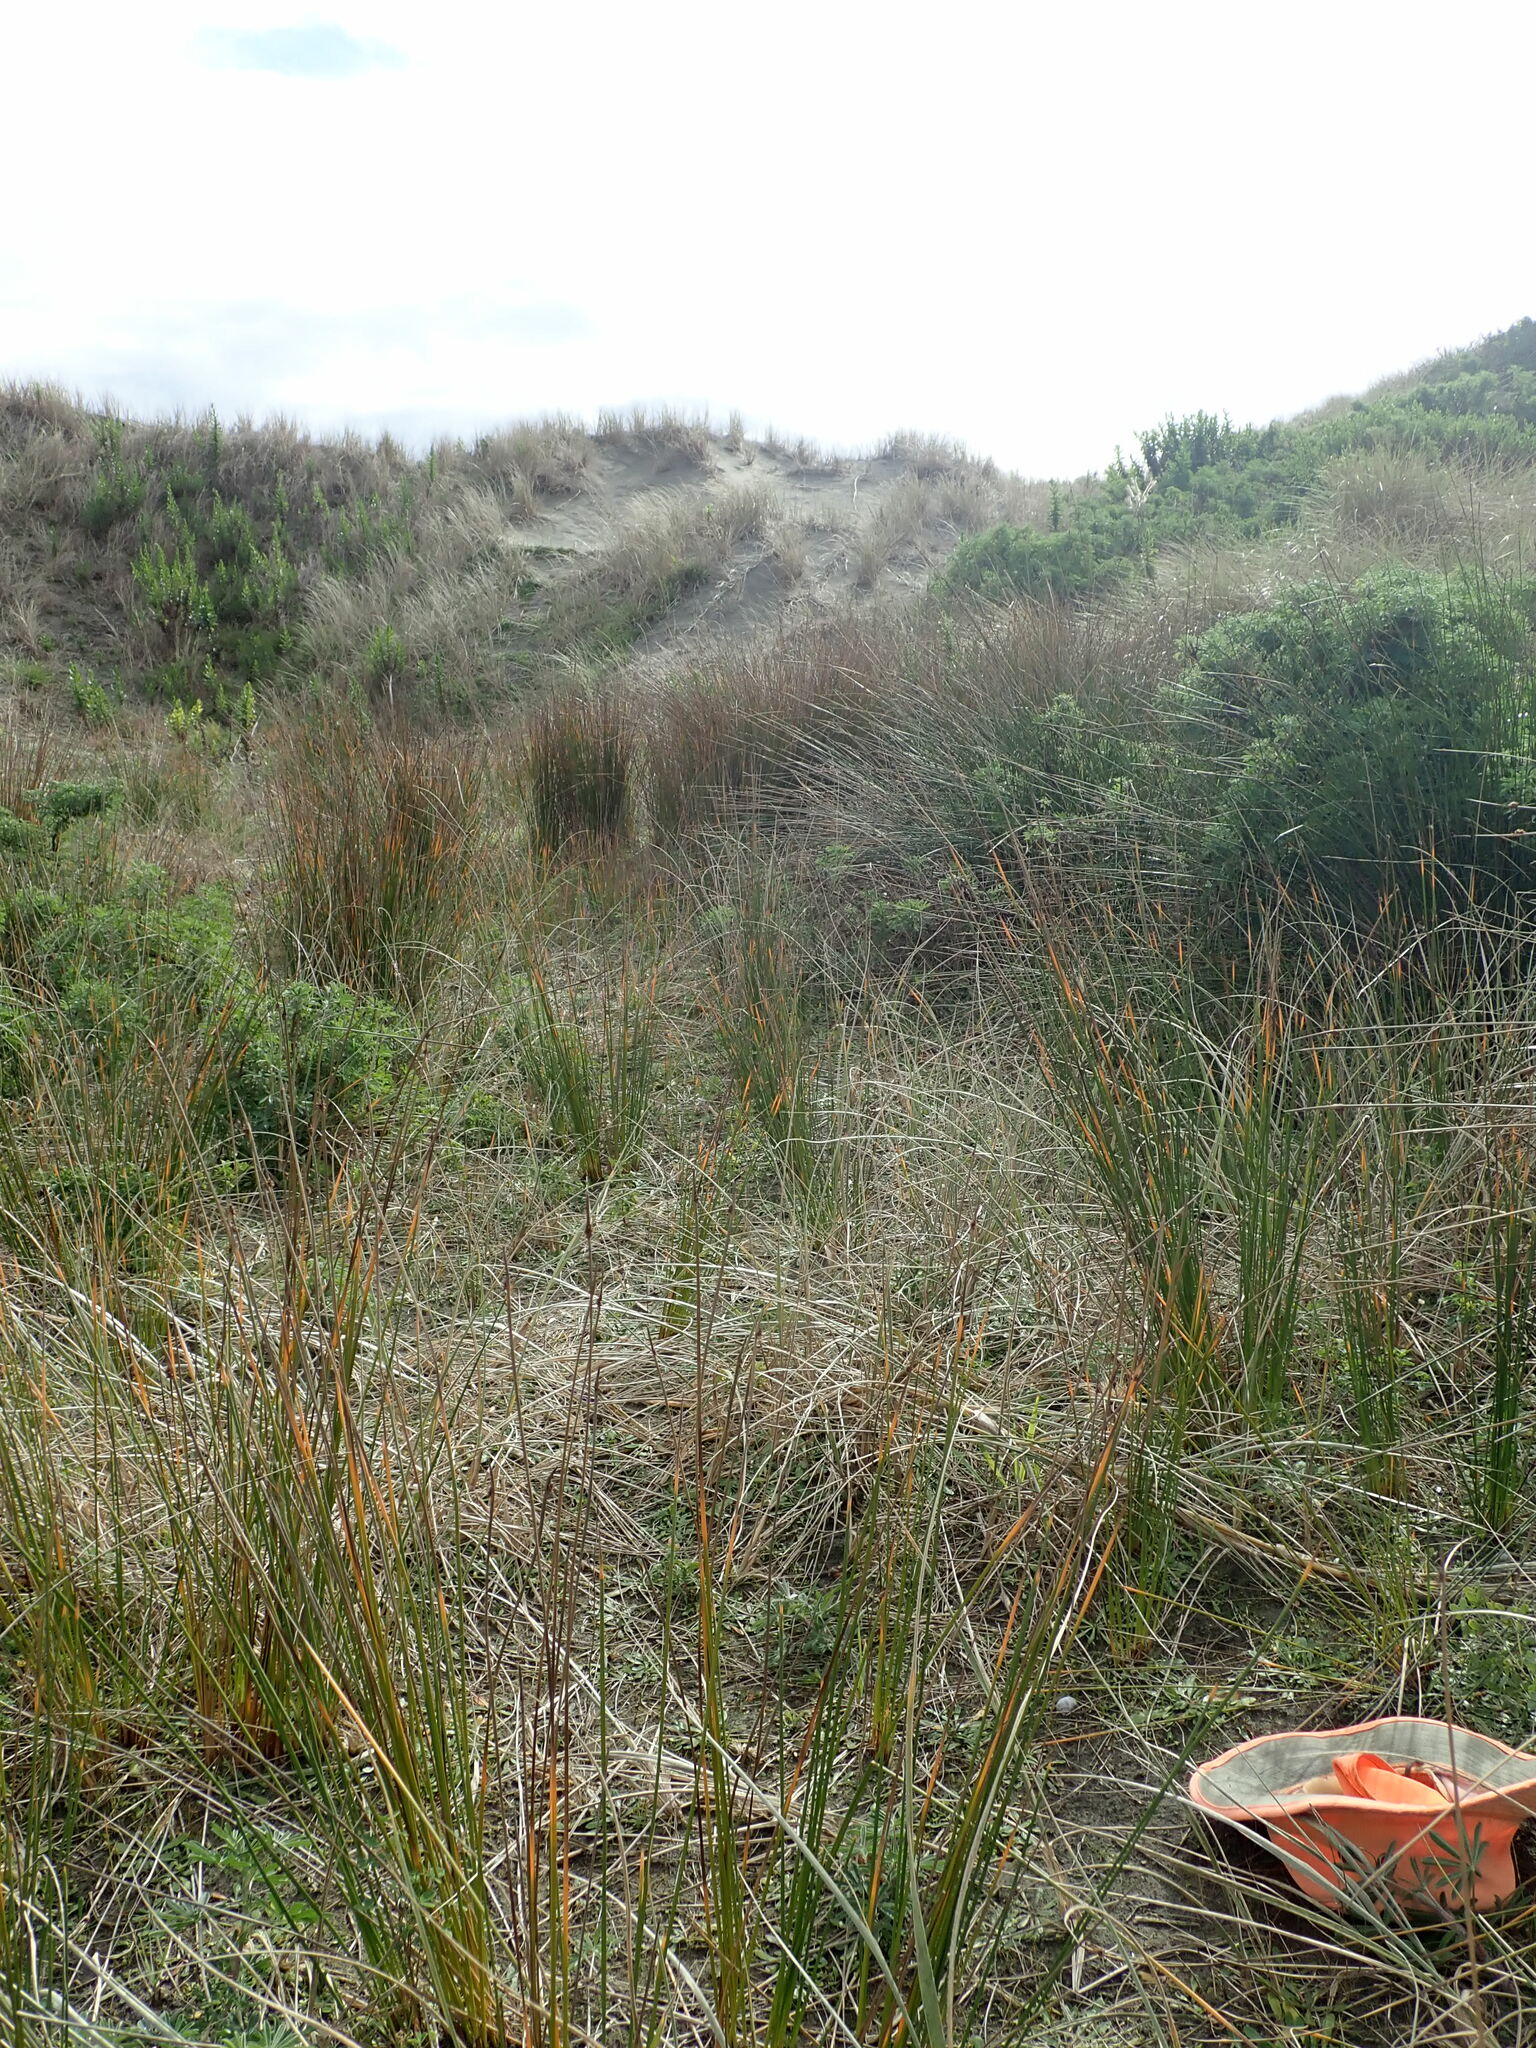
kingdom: Plantae
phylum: Tracheophyta
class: Liliopsida
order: Poales
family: Cyperaceae
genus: Isolepis
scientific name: Isolepis cernua
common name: Slender club-rush
